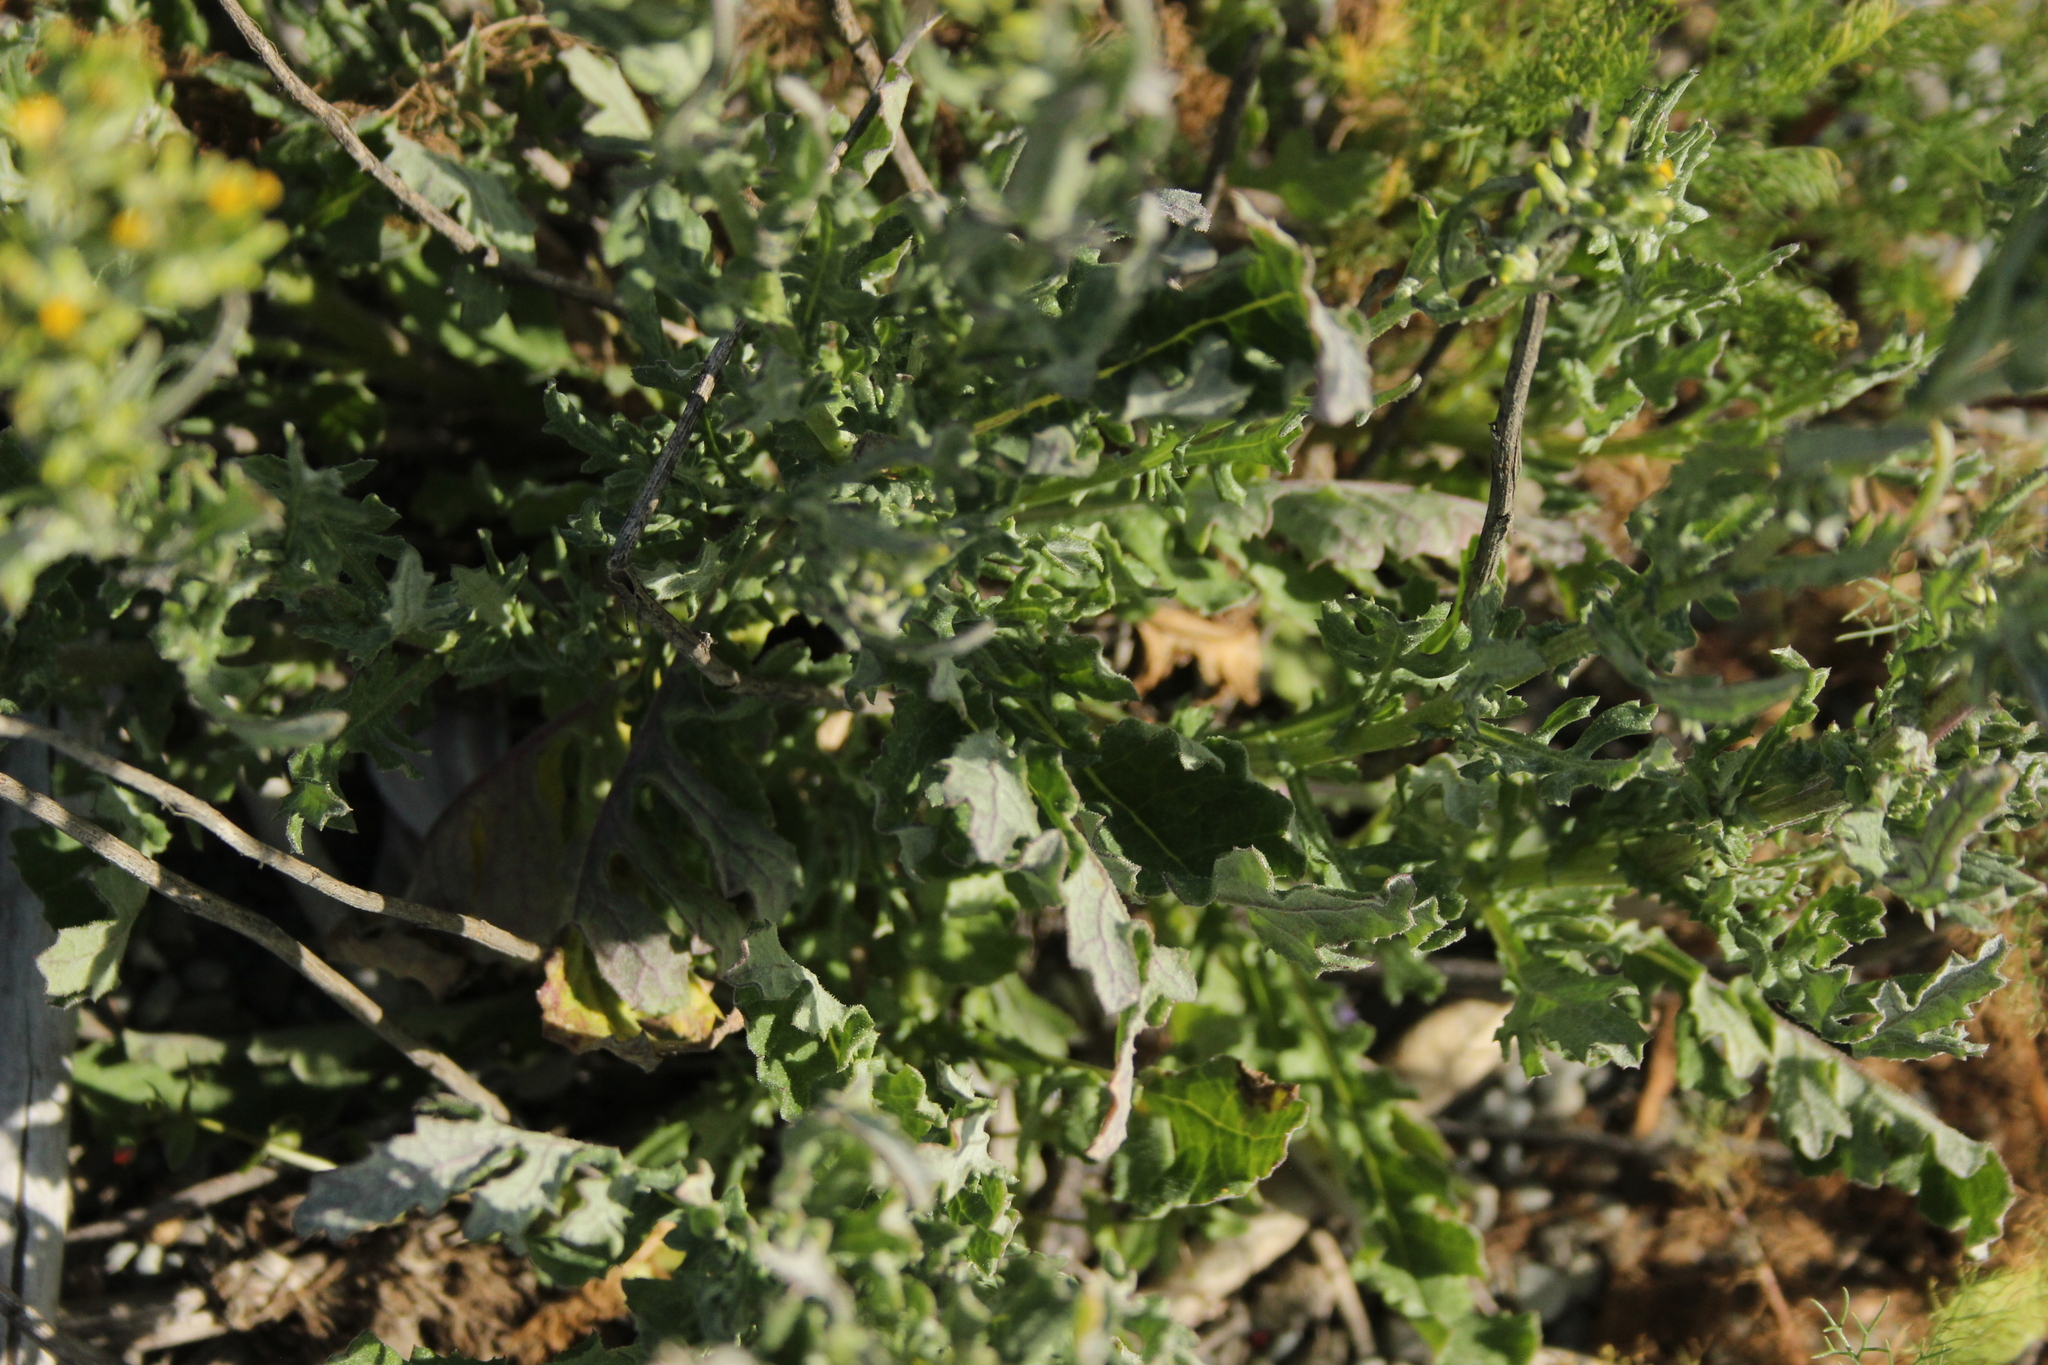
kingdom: Plantae
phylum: Tracheophyta
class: Magnoliopsida
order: Asterales
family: Asteraceae
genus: Senecio
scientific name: Senecio glomeratus
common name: Cutleaf burnweed
